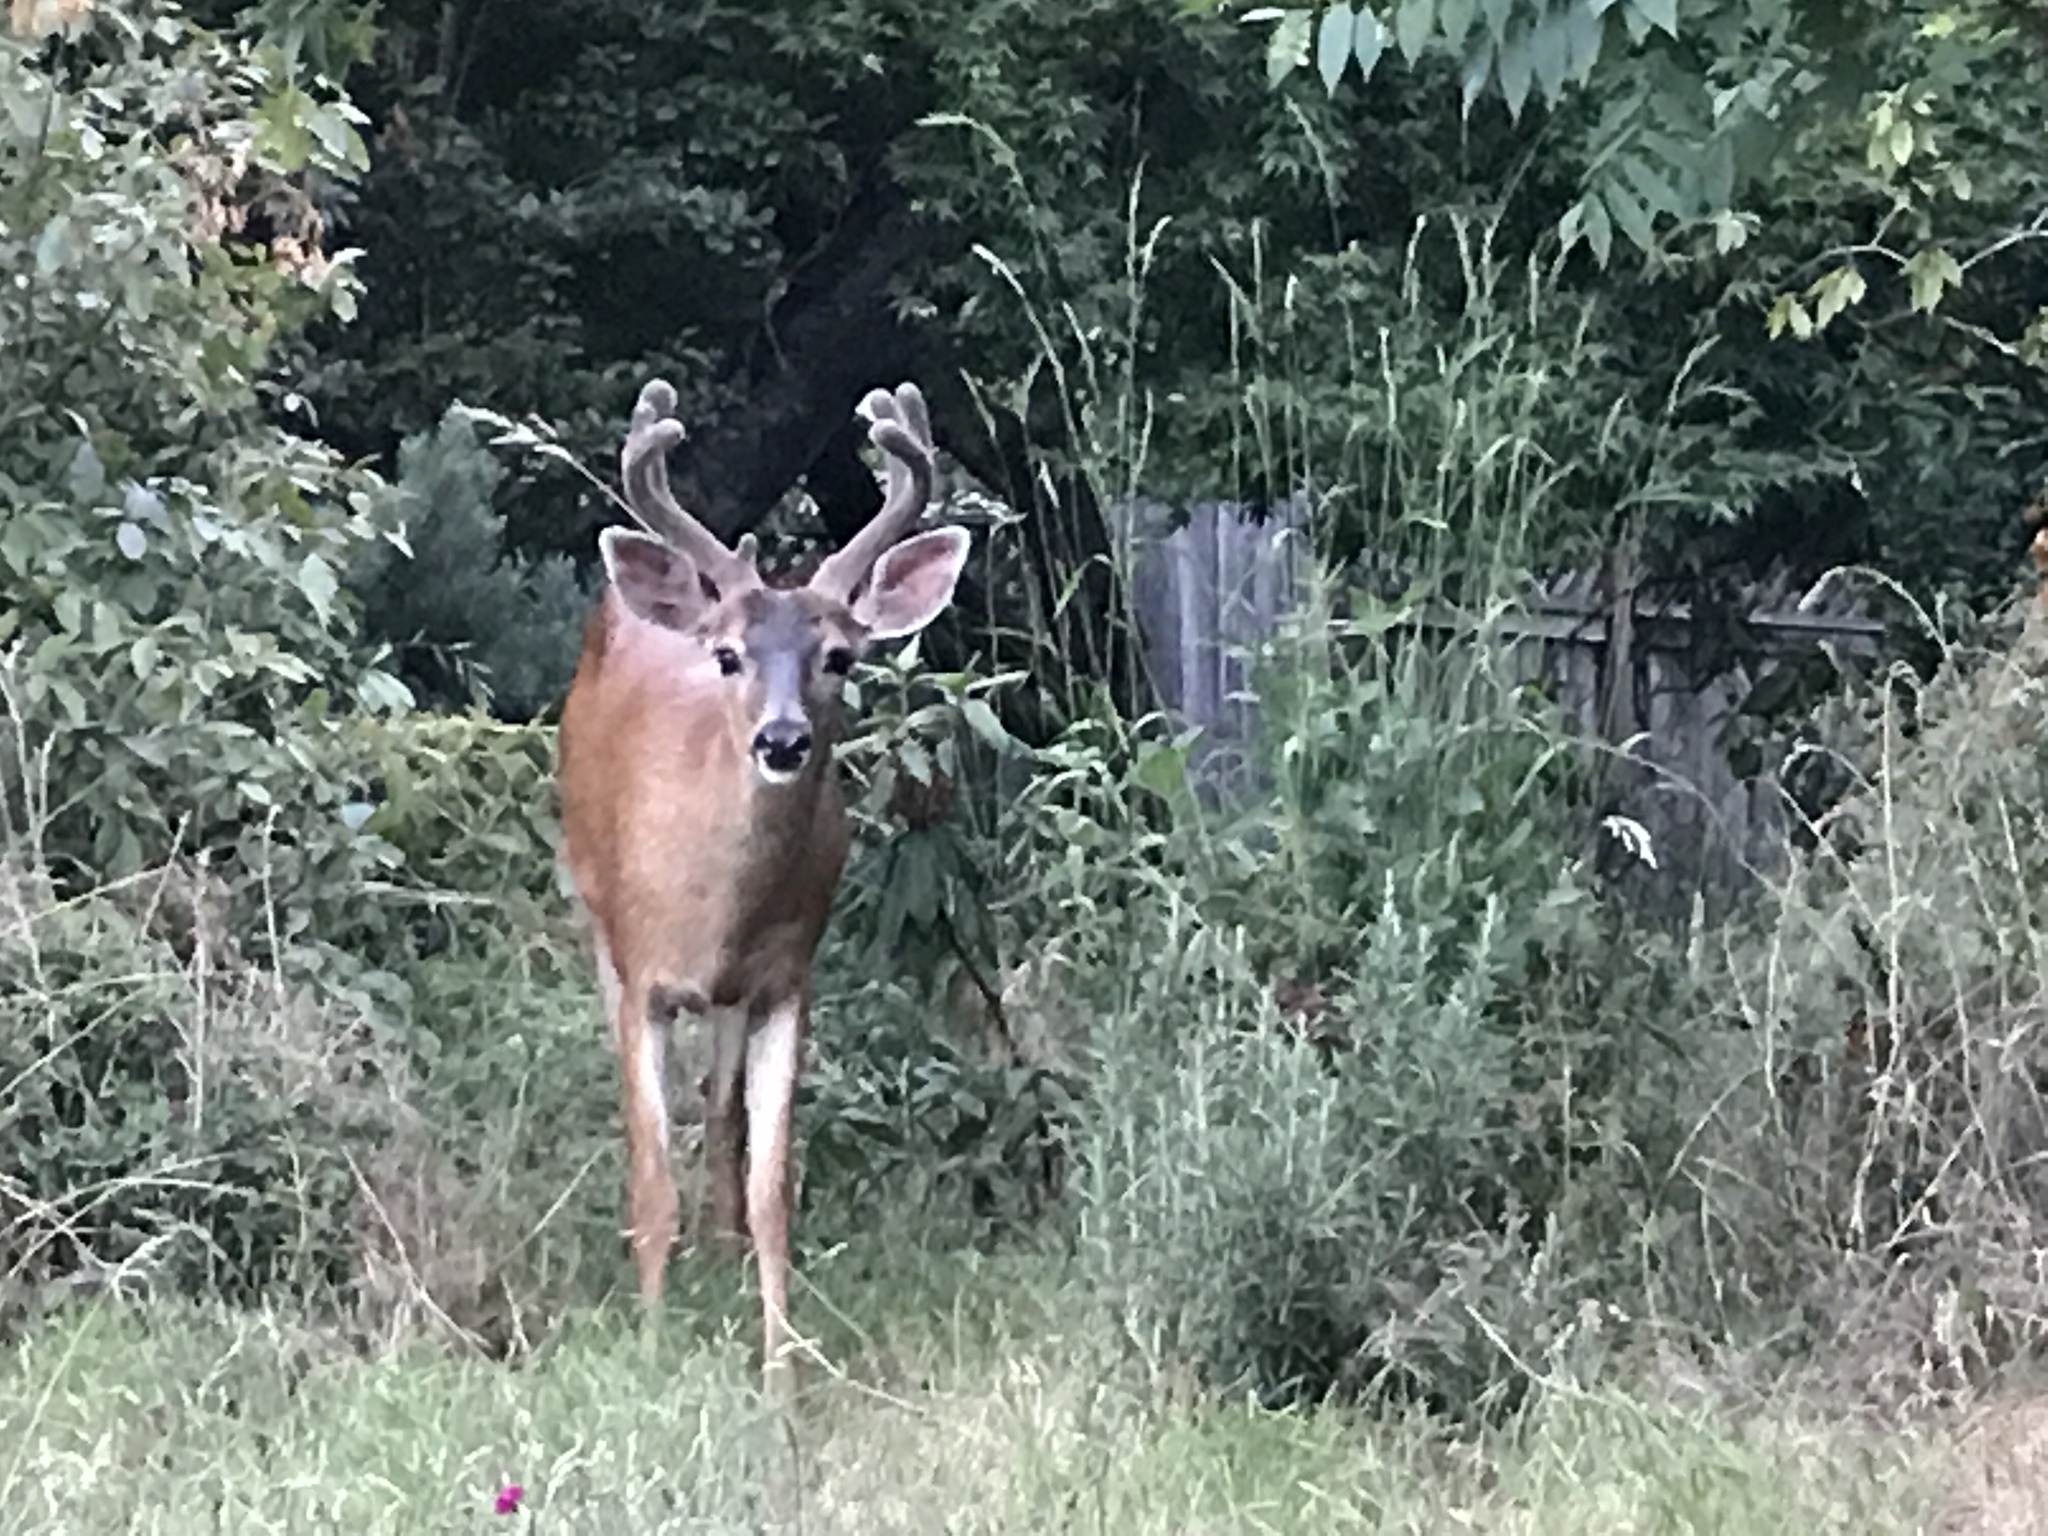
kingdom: Animalia
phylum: Chordata
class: Mammalia
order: Artiodactyla
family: Cervidae
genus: Odocoileus
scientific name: Odocoileus hemionus
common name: Mule deer
